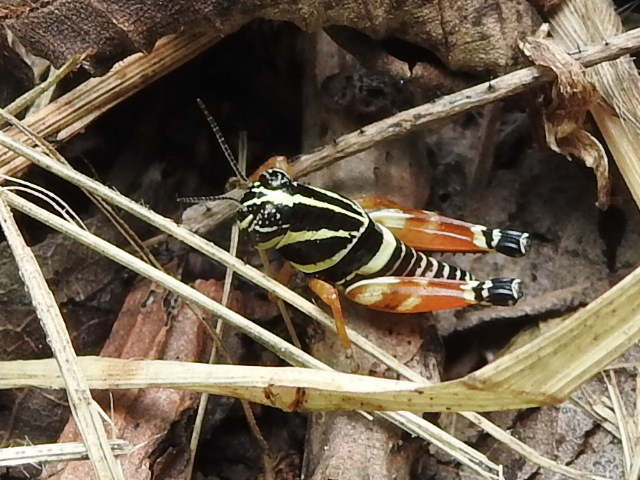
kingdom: Animalia
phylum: Arthropoda
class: Insecta
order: Orthoptera
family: Acrididae
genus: Aidemona
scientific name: Aidemona azteca
